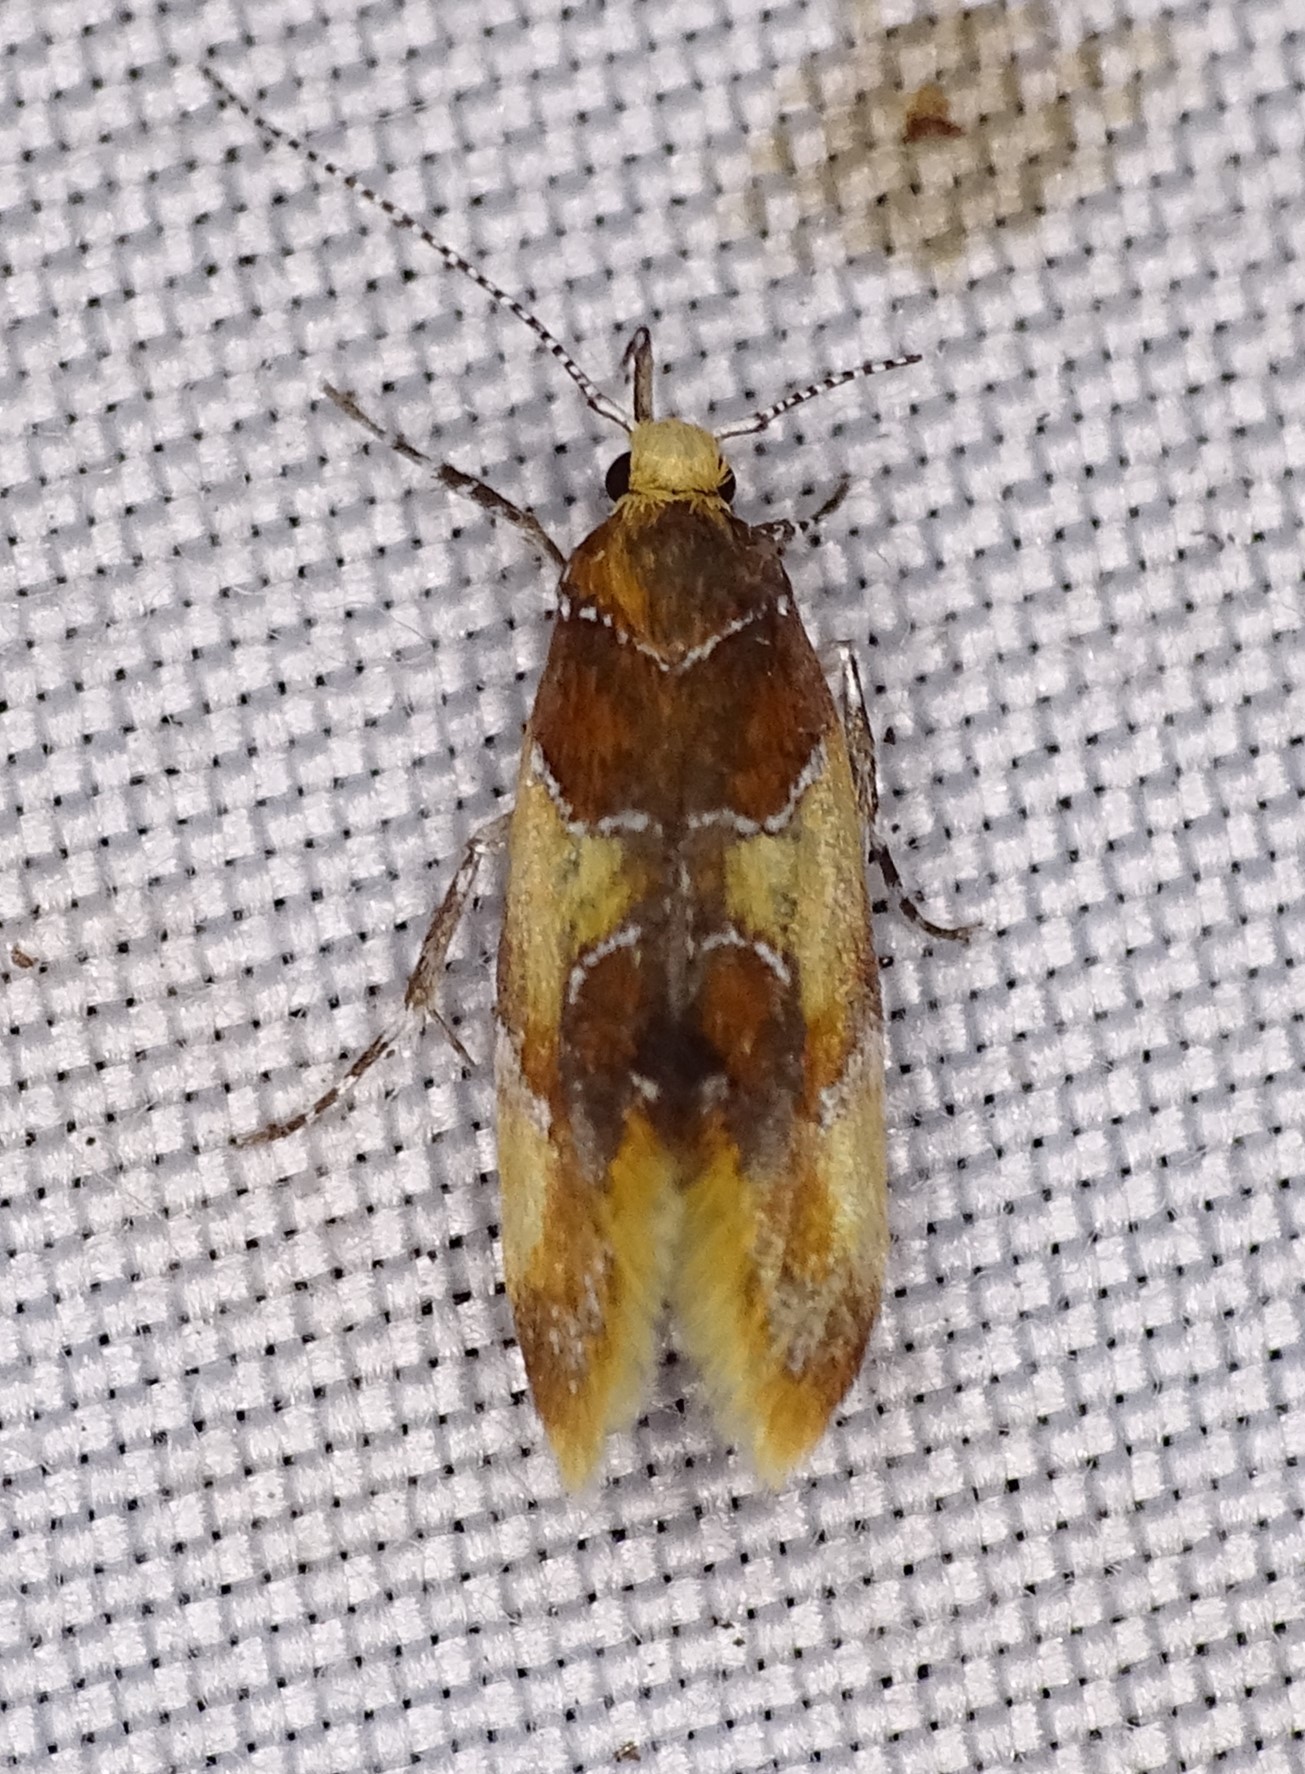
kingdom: Animalia
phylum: Arthropoda
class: Insecta
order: Lepidoptera
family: Oecophoridae
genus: Callima
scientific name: Callima argenticinctella
